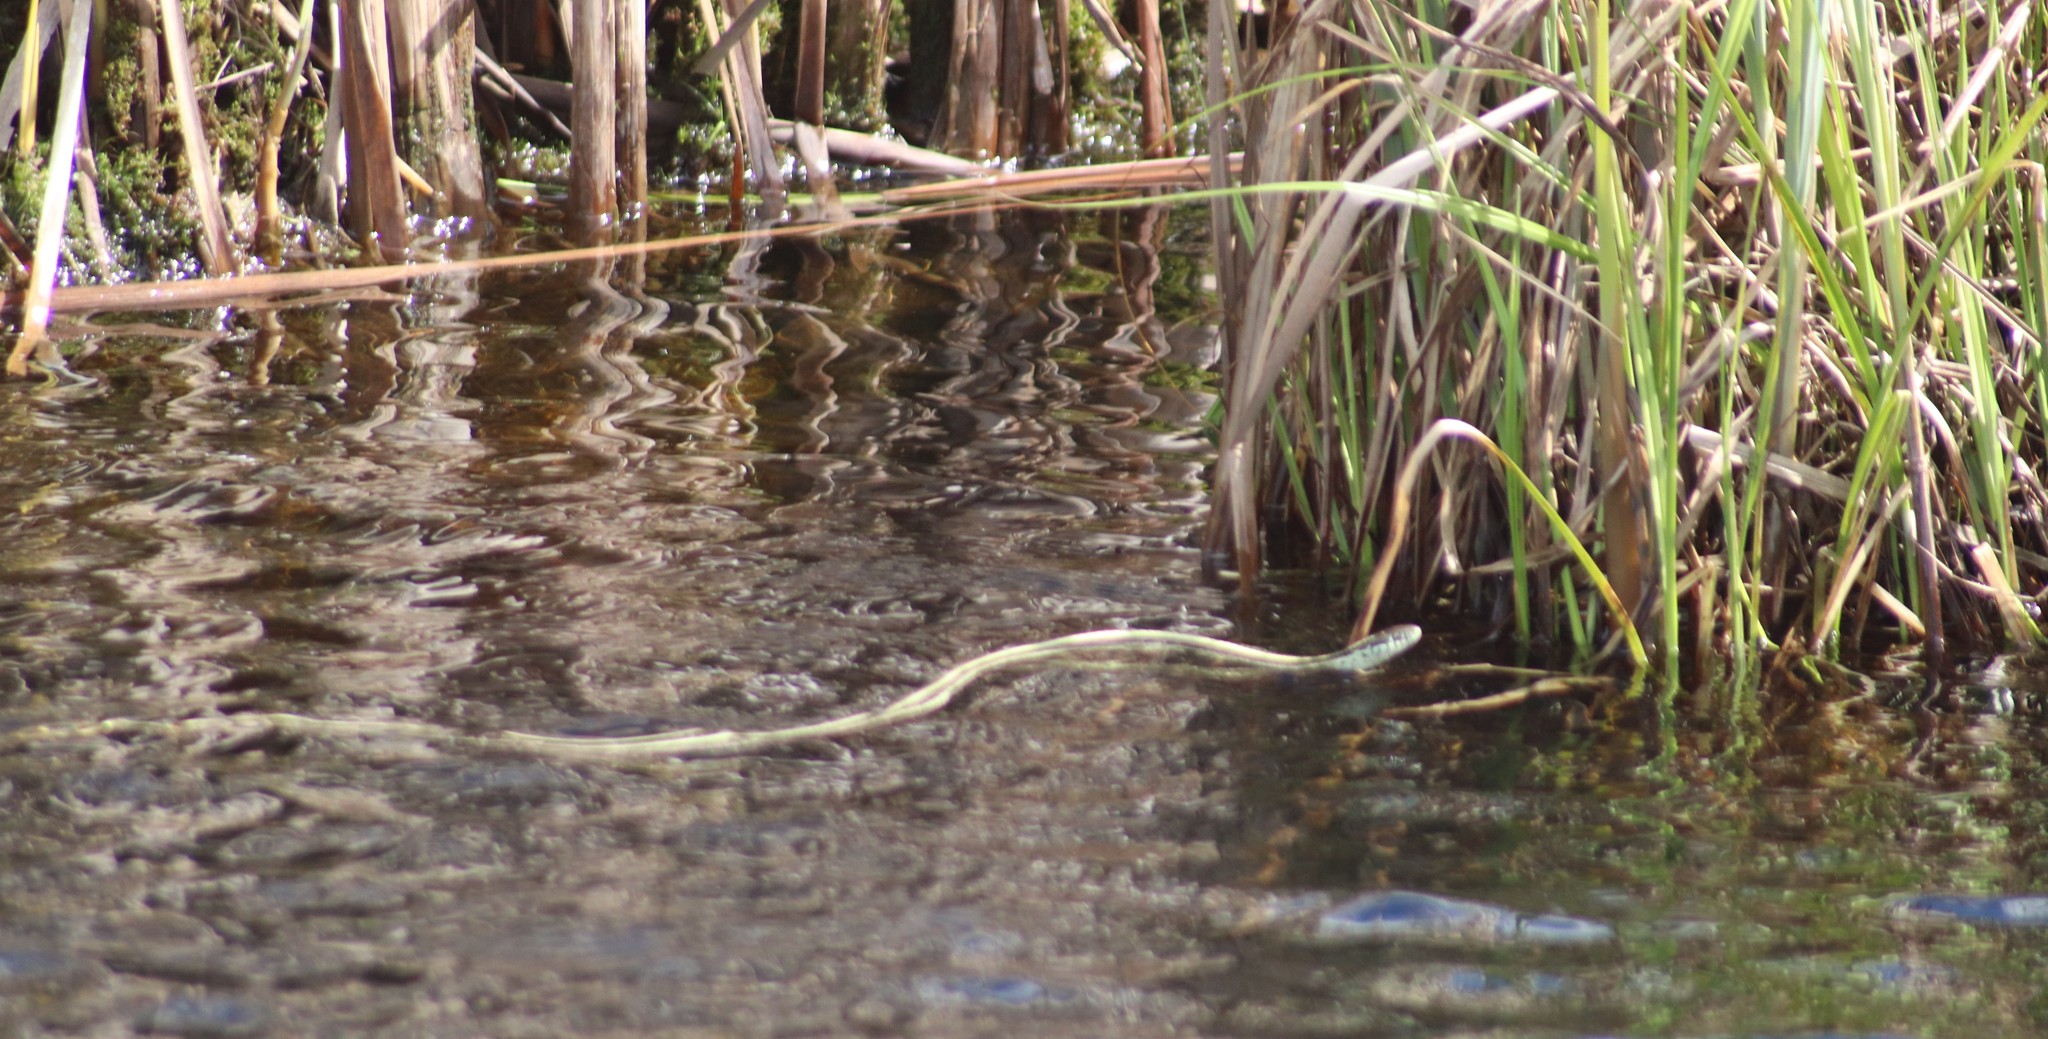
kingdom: Animalia
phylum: Chordata
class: Squamata
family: Colubridae
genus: Thamnophis
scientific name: Thamnophis radix
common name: Plains garter snake
